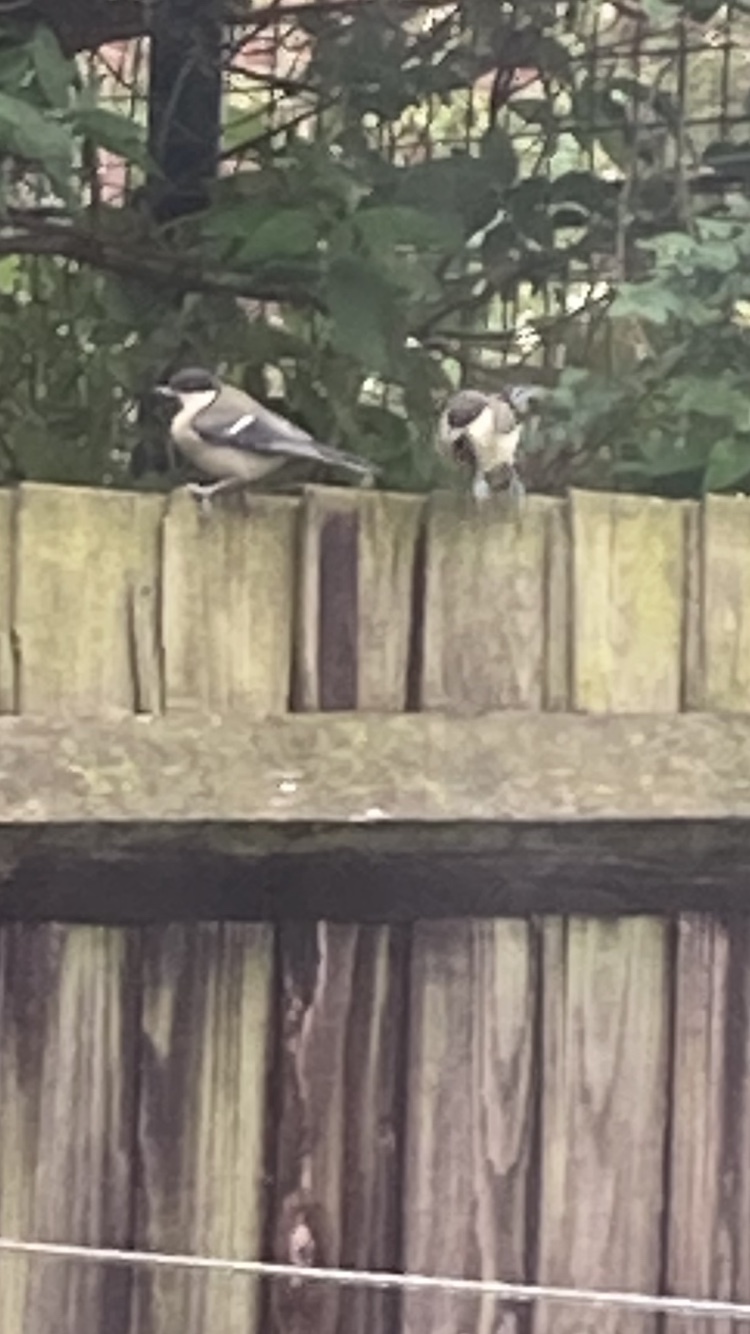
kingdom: Animalia
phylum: Chordata
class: Aves
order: Passeriformes
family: Paridae
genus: Parus
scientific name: Parus major
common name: Great tit
